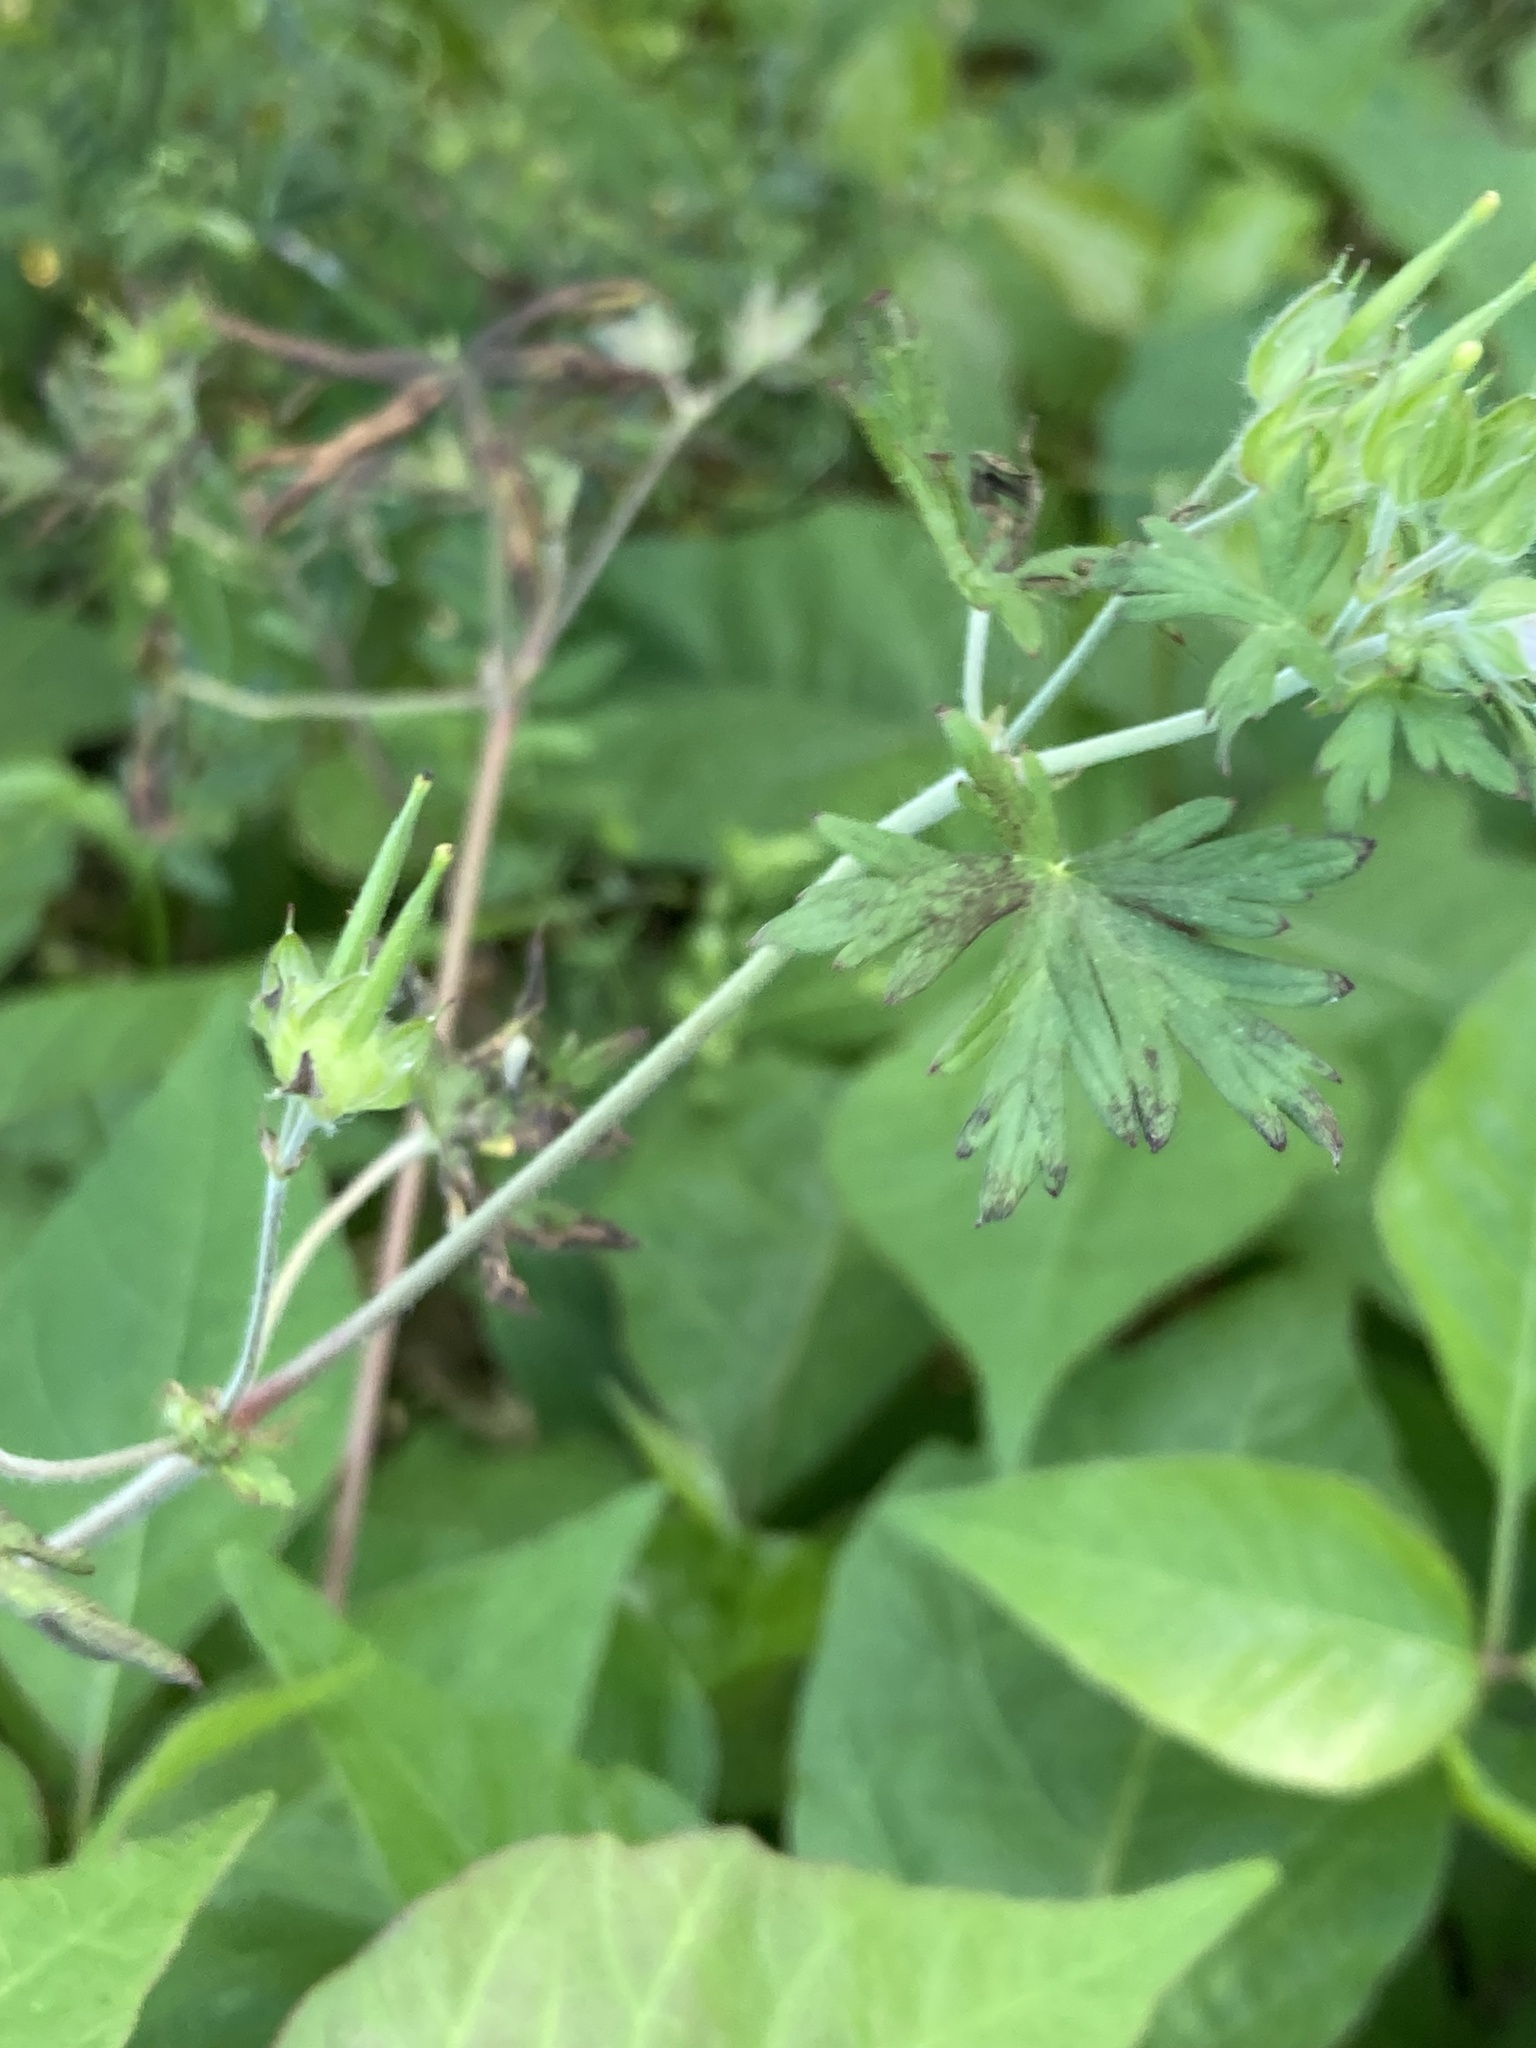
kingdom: Plantae
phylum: Tracheophyta
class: Magnoliopsida
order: Geraniales
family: Geraniaceae
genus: Geranium
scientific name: Geranium carolinianum
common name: Carolina crane's-bill
